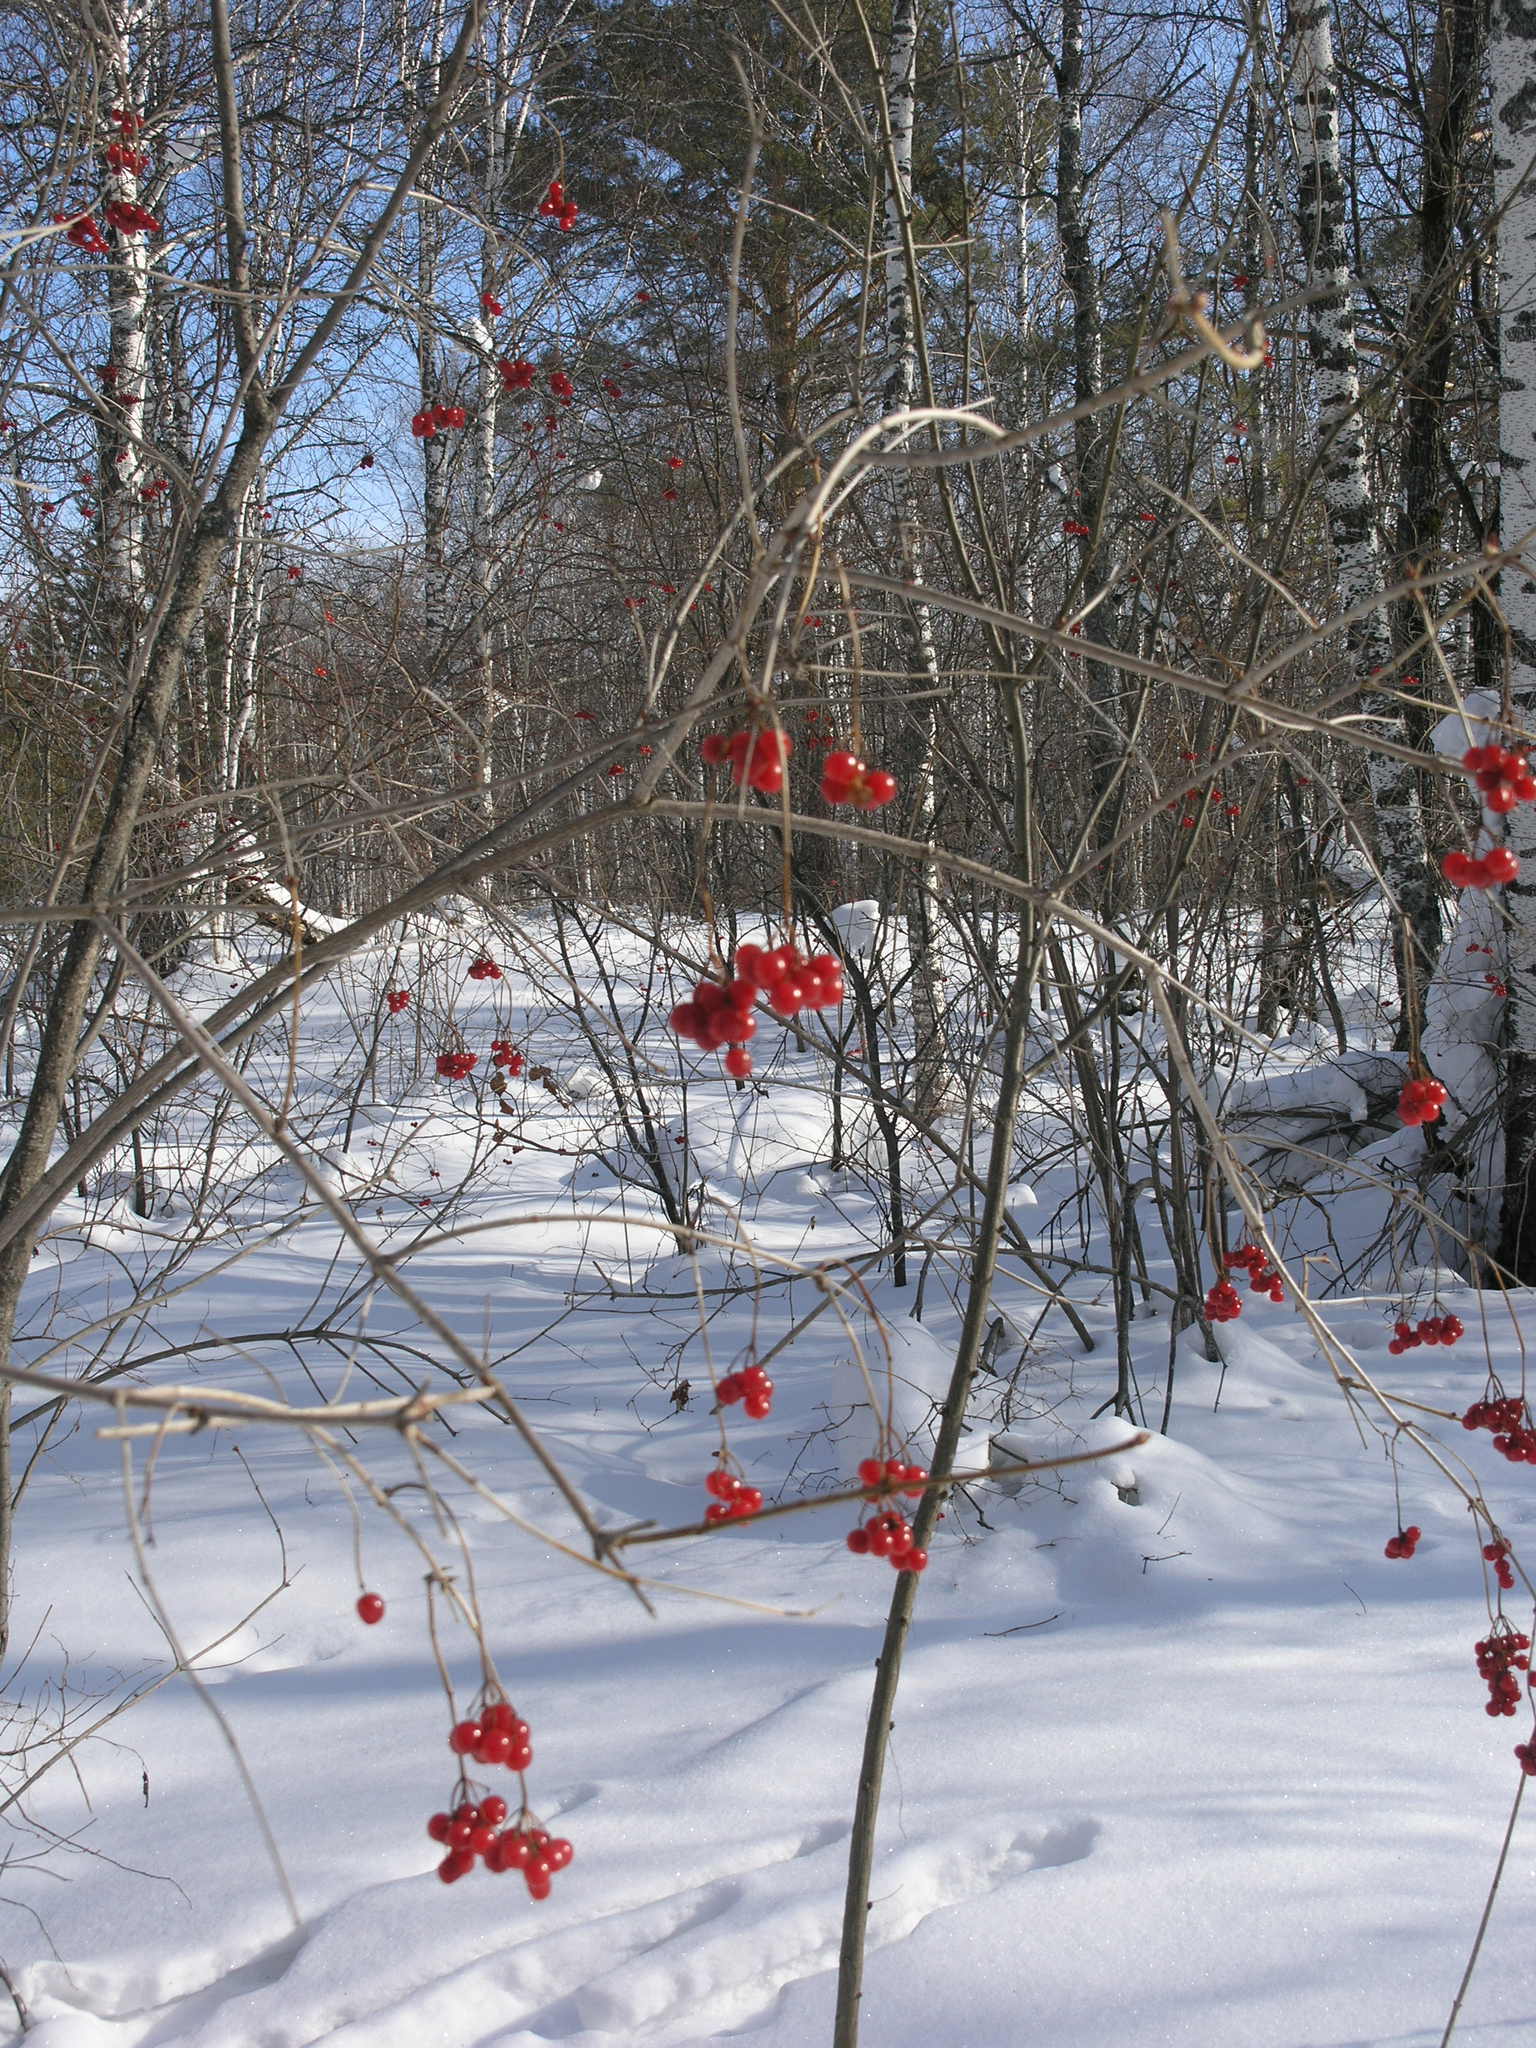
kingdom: Plantae
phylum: Tracheophyta
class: Magnoliopsida
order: Dipsacales
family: Viburnaceae
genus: Viburnum
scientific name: Viburnum opulus
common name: Guelder-rose
